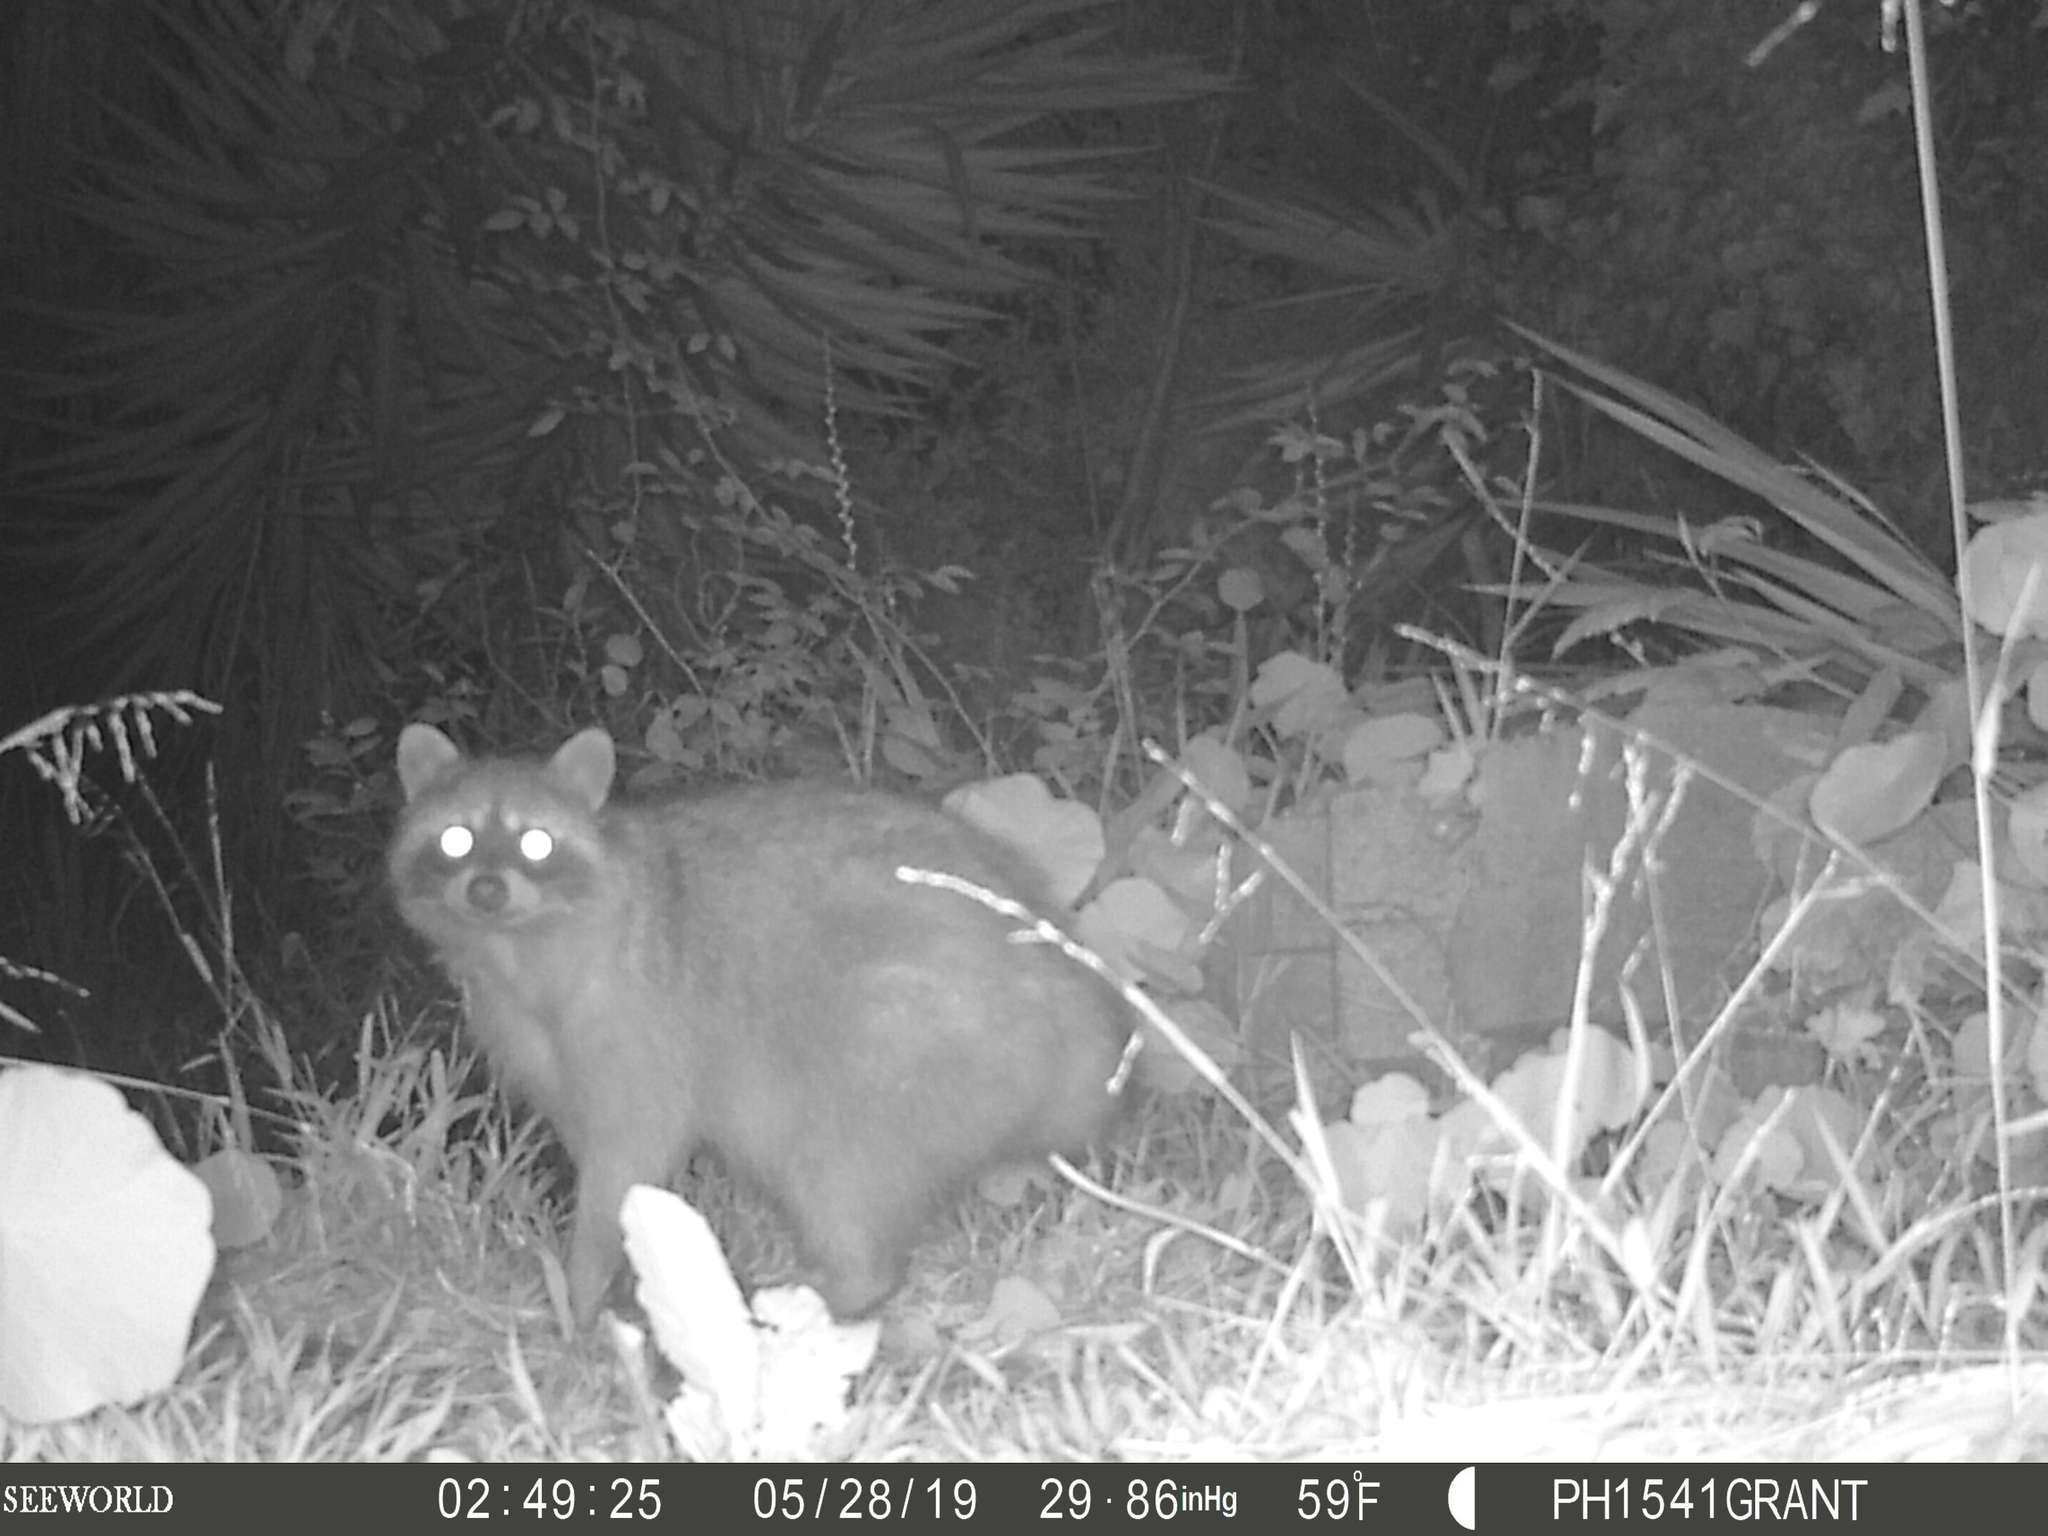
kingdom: Animalia
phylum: Chordata
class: Mammalia
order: Carnivora
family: Procyonidae
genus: Procyon
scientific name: Procyon lotor
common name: Raccoon
